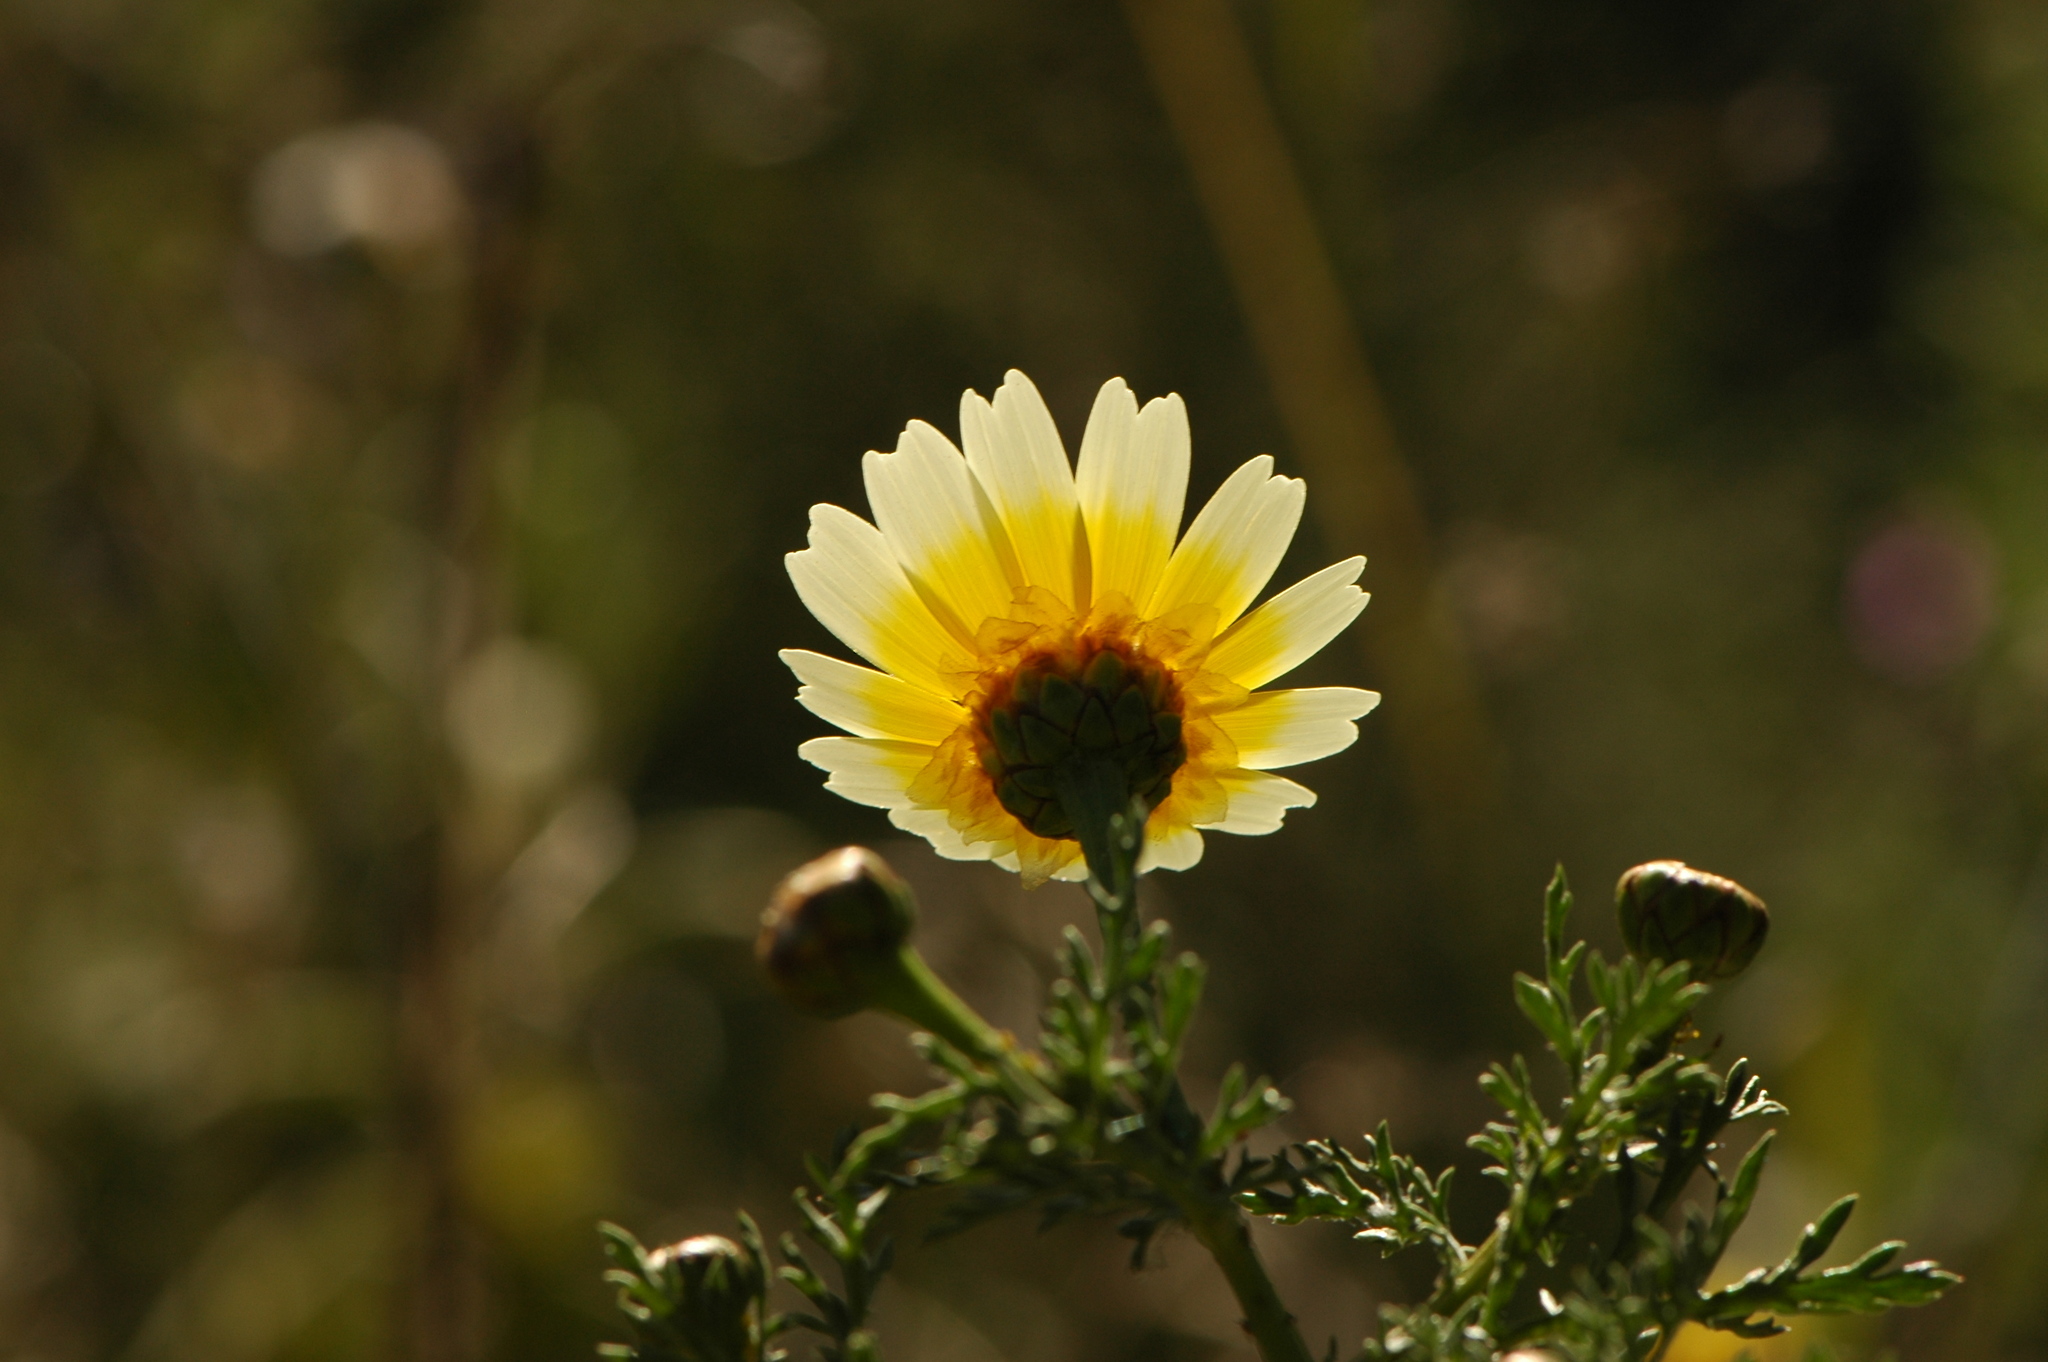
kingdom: Plantae
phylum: Tracheophyta
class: Magnoliopsida
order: Asterales
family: Asteraceae
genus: Glebionis
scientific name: Glebionis coronaria
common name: Crowndaisy
